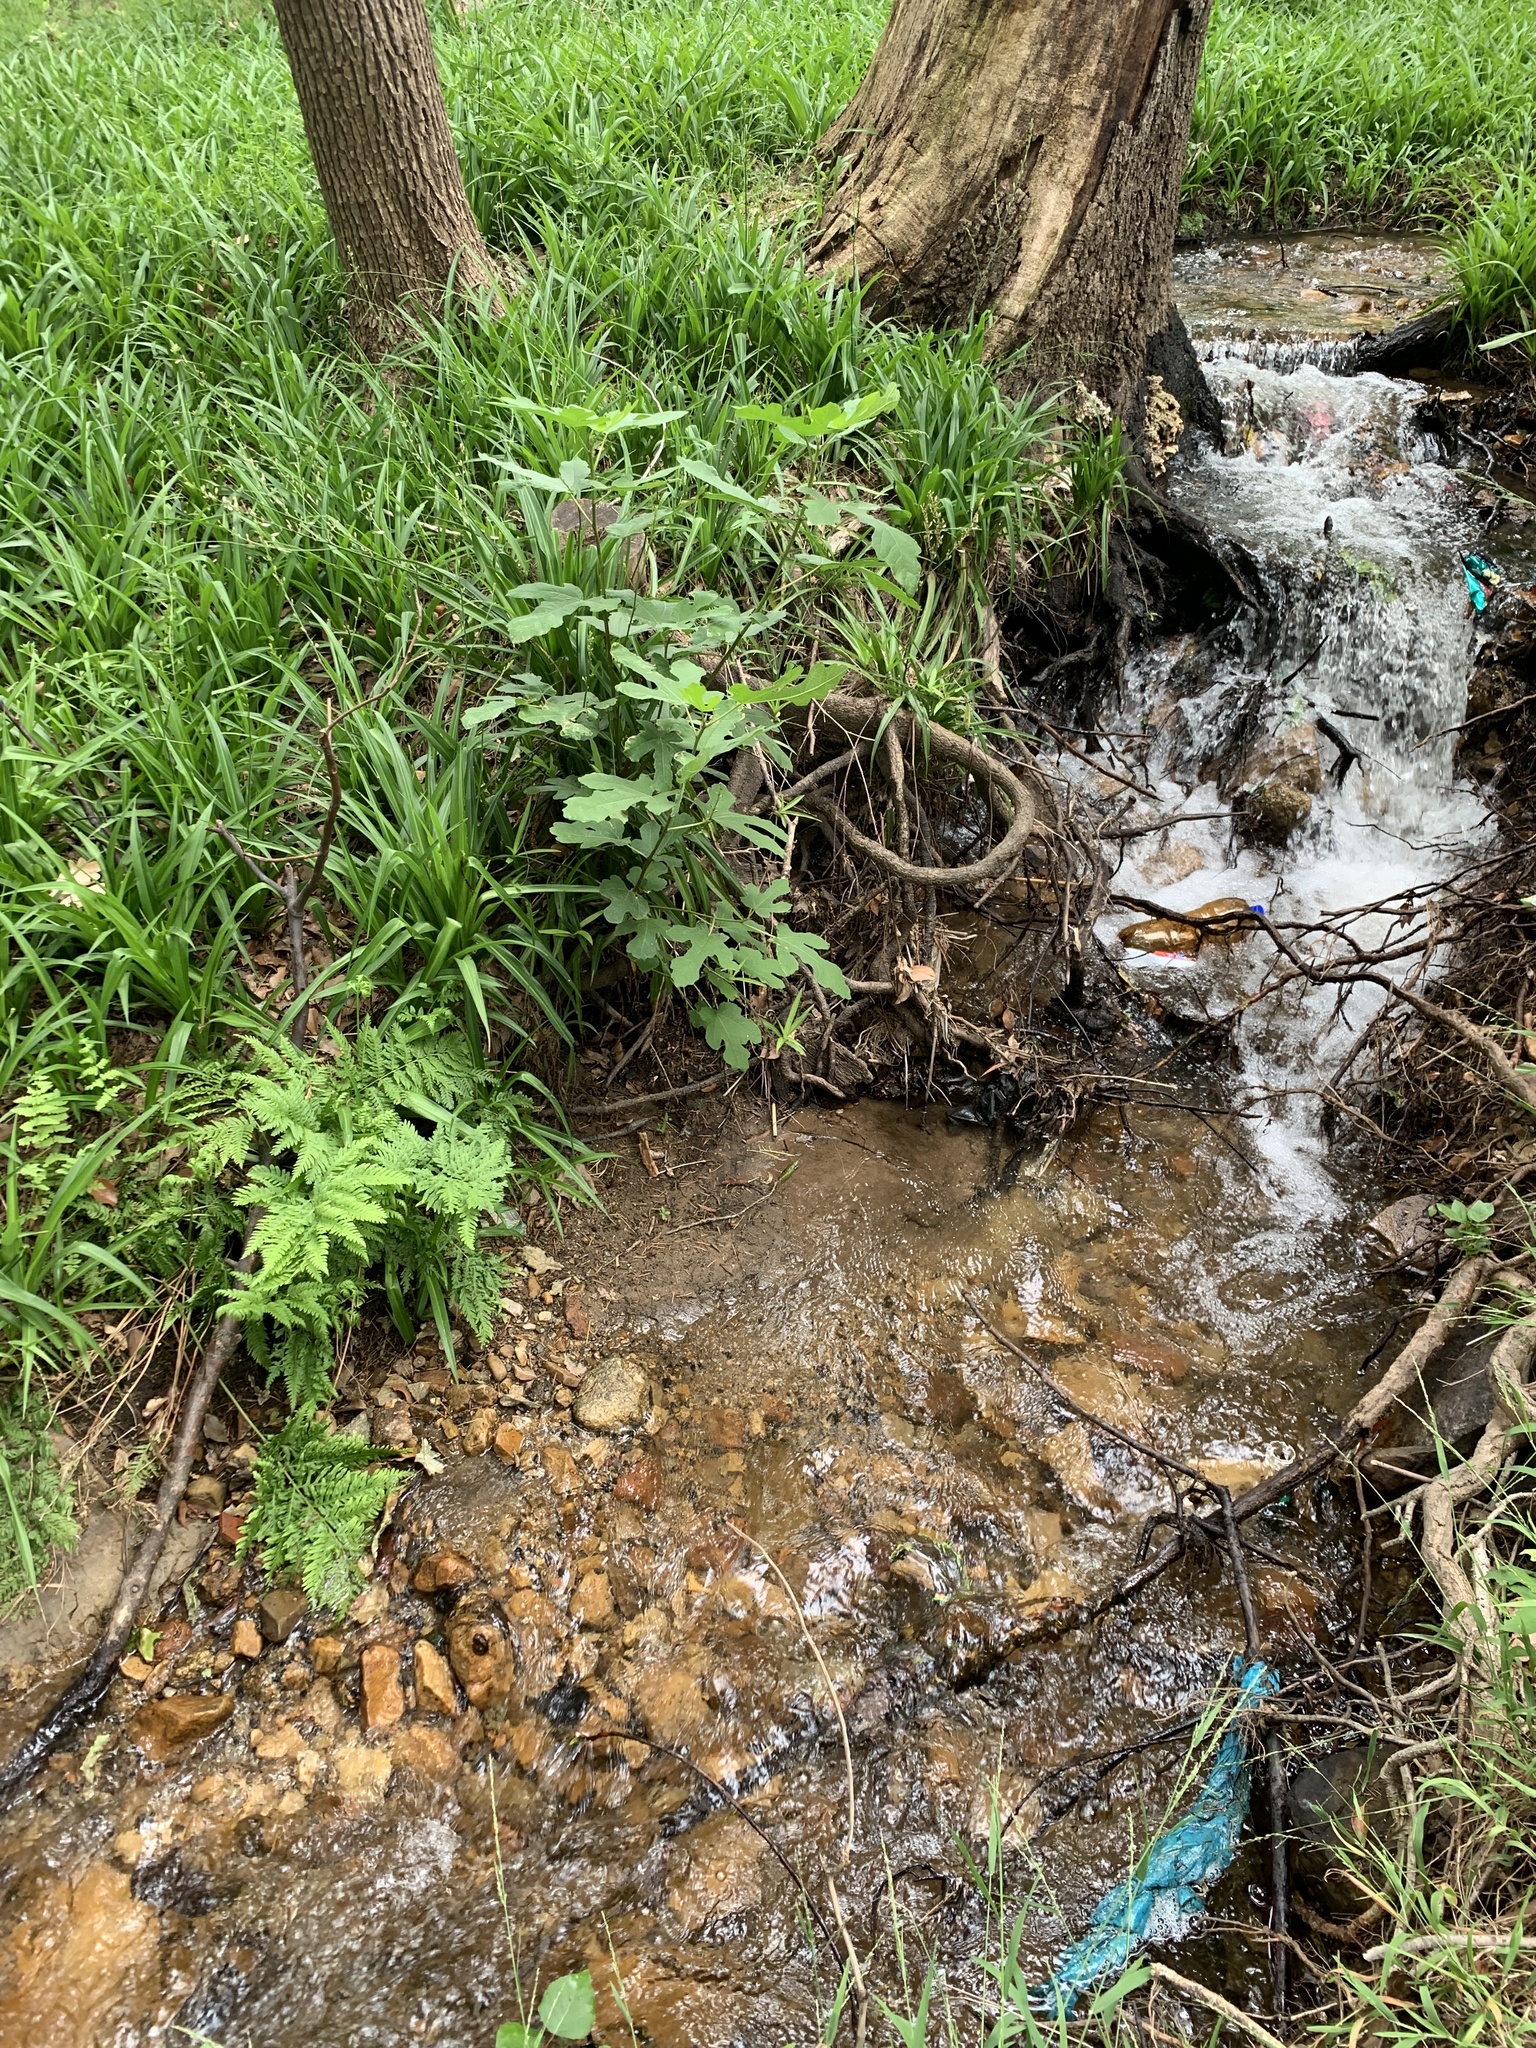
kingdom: Plantae
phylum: Tracheophyta
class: Magnoliopsida
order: Rosales
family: Moraceae
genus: Ficus
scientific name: Ficus carica
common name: Fig
